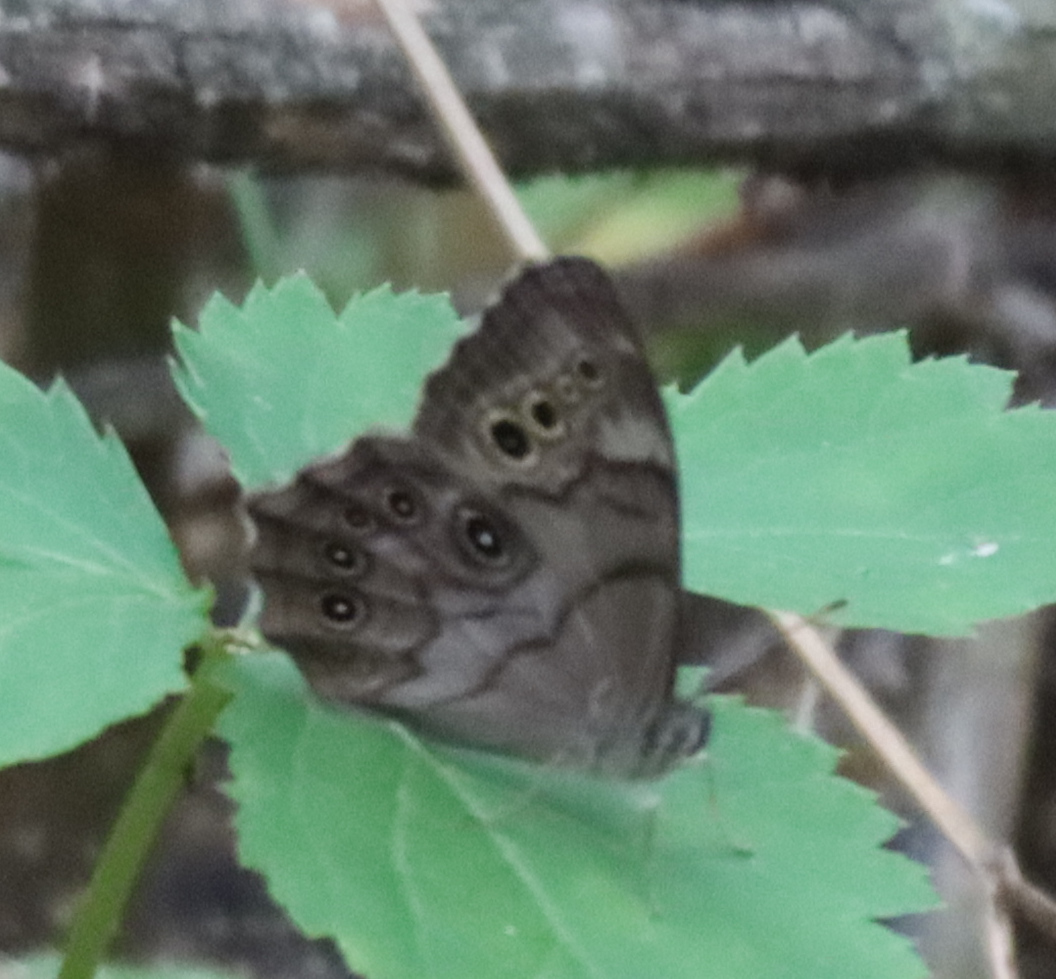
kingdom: Animalia
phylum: Arthropoda
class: Insecta
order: Lepidoptera
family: Nymphalidae
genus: Lethe
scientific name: Lethe anthedon
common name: Northern pearly-eye
